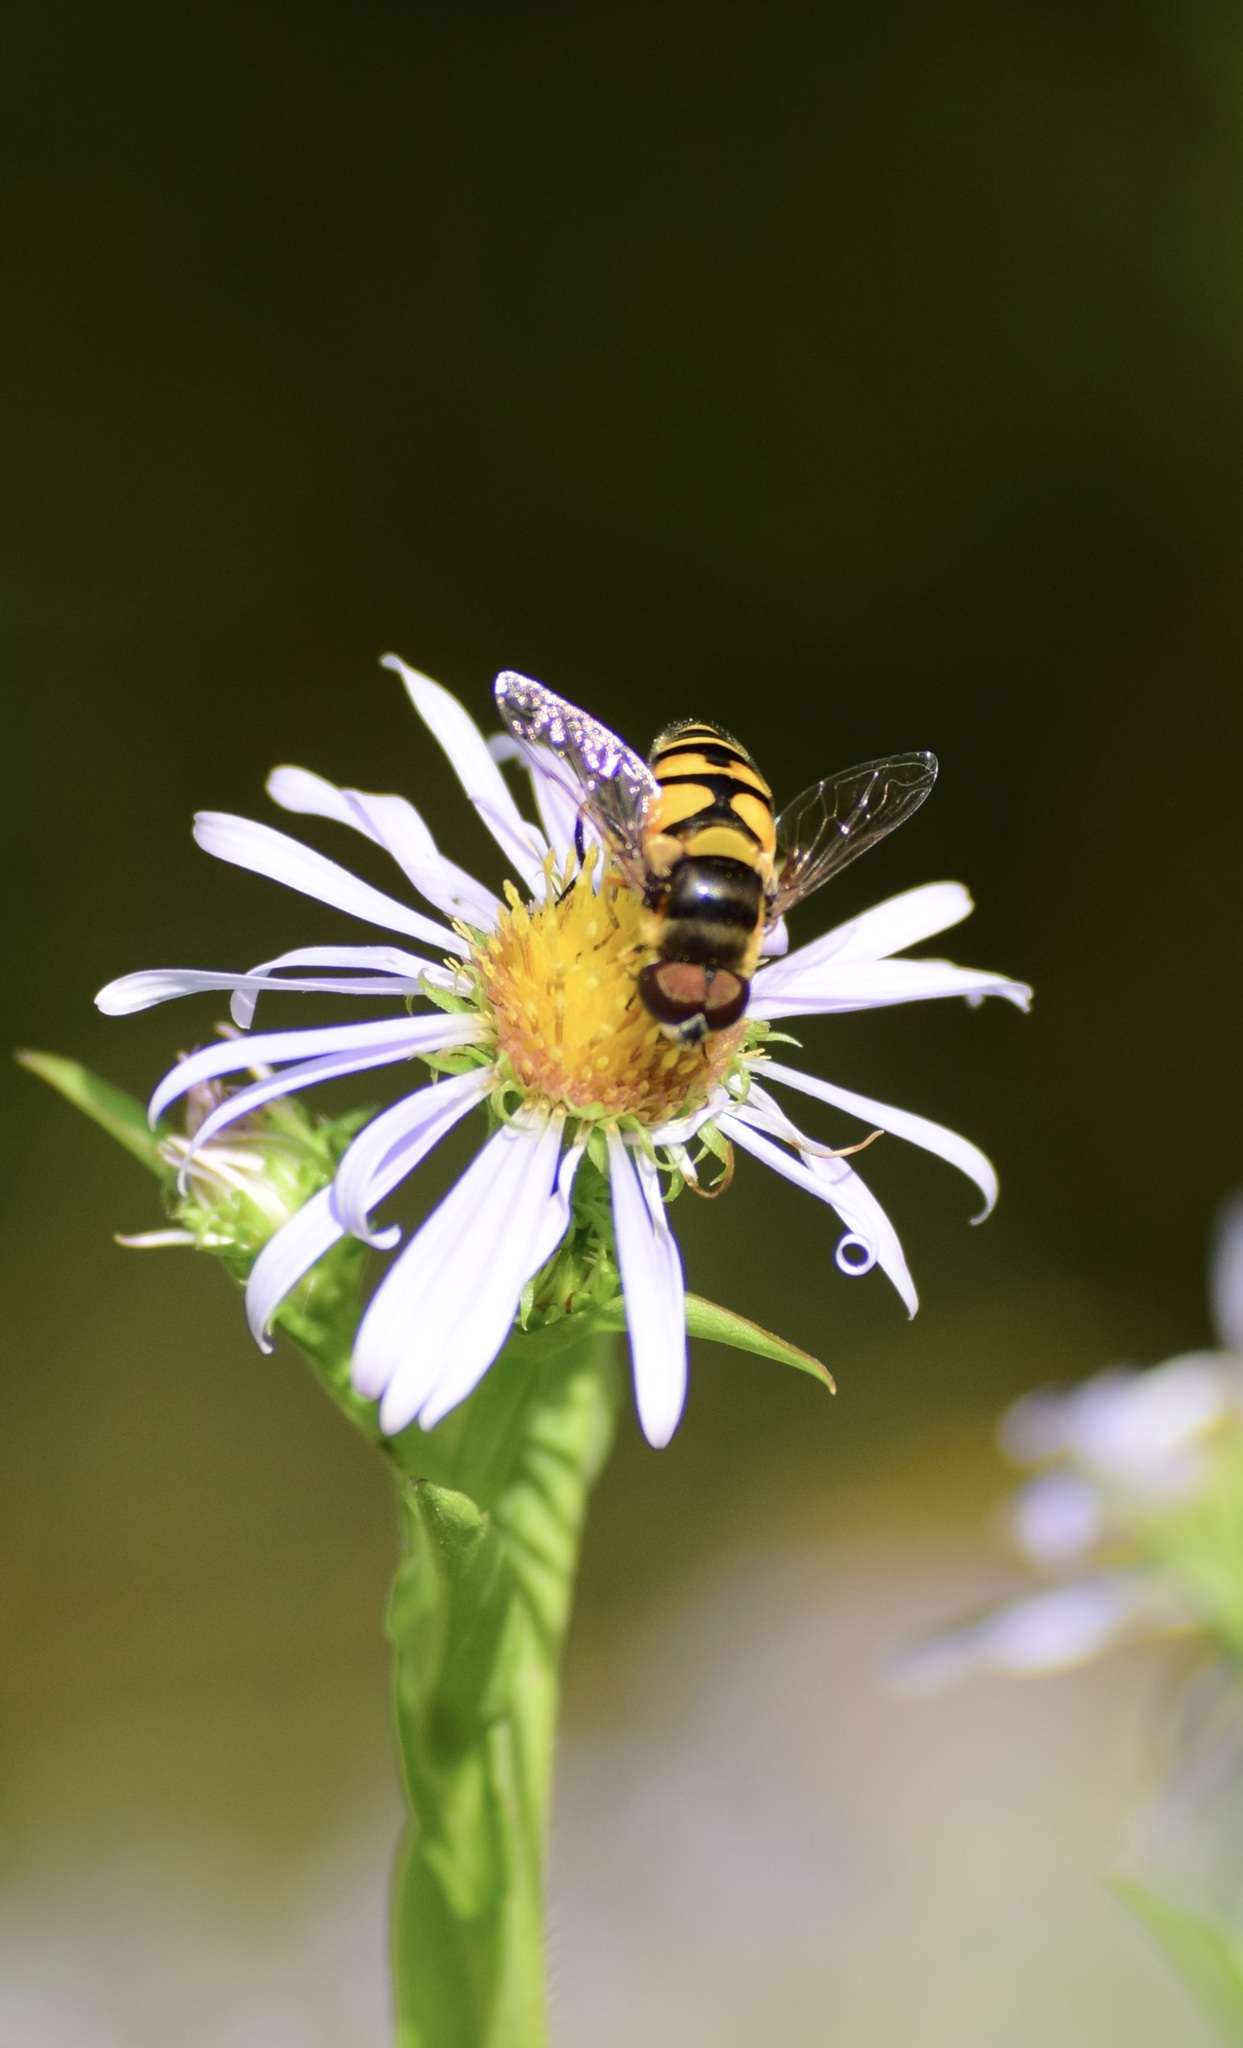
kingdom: Animalia
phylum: Arthropoda
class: Insecta
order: Diptera
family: Syrphidae
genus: Eristalis
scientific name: Eristalis transversa
